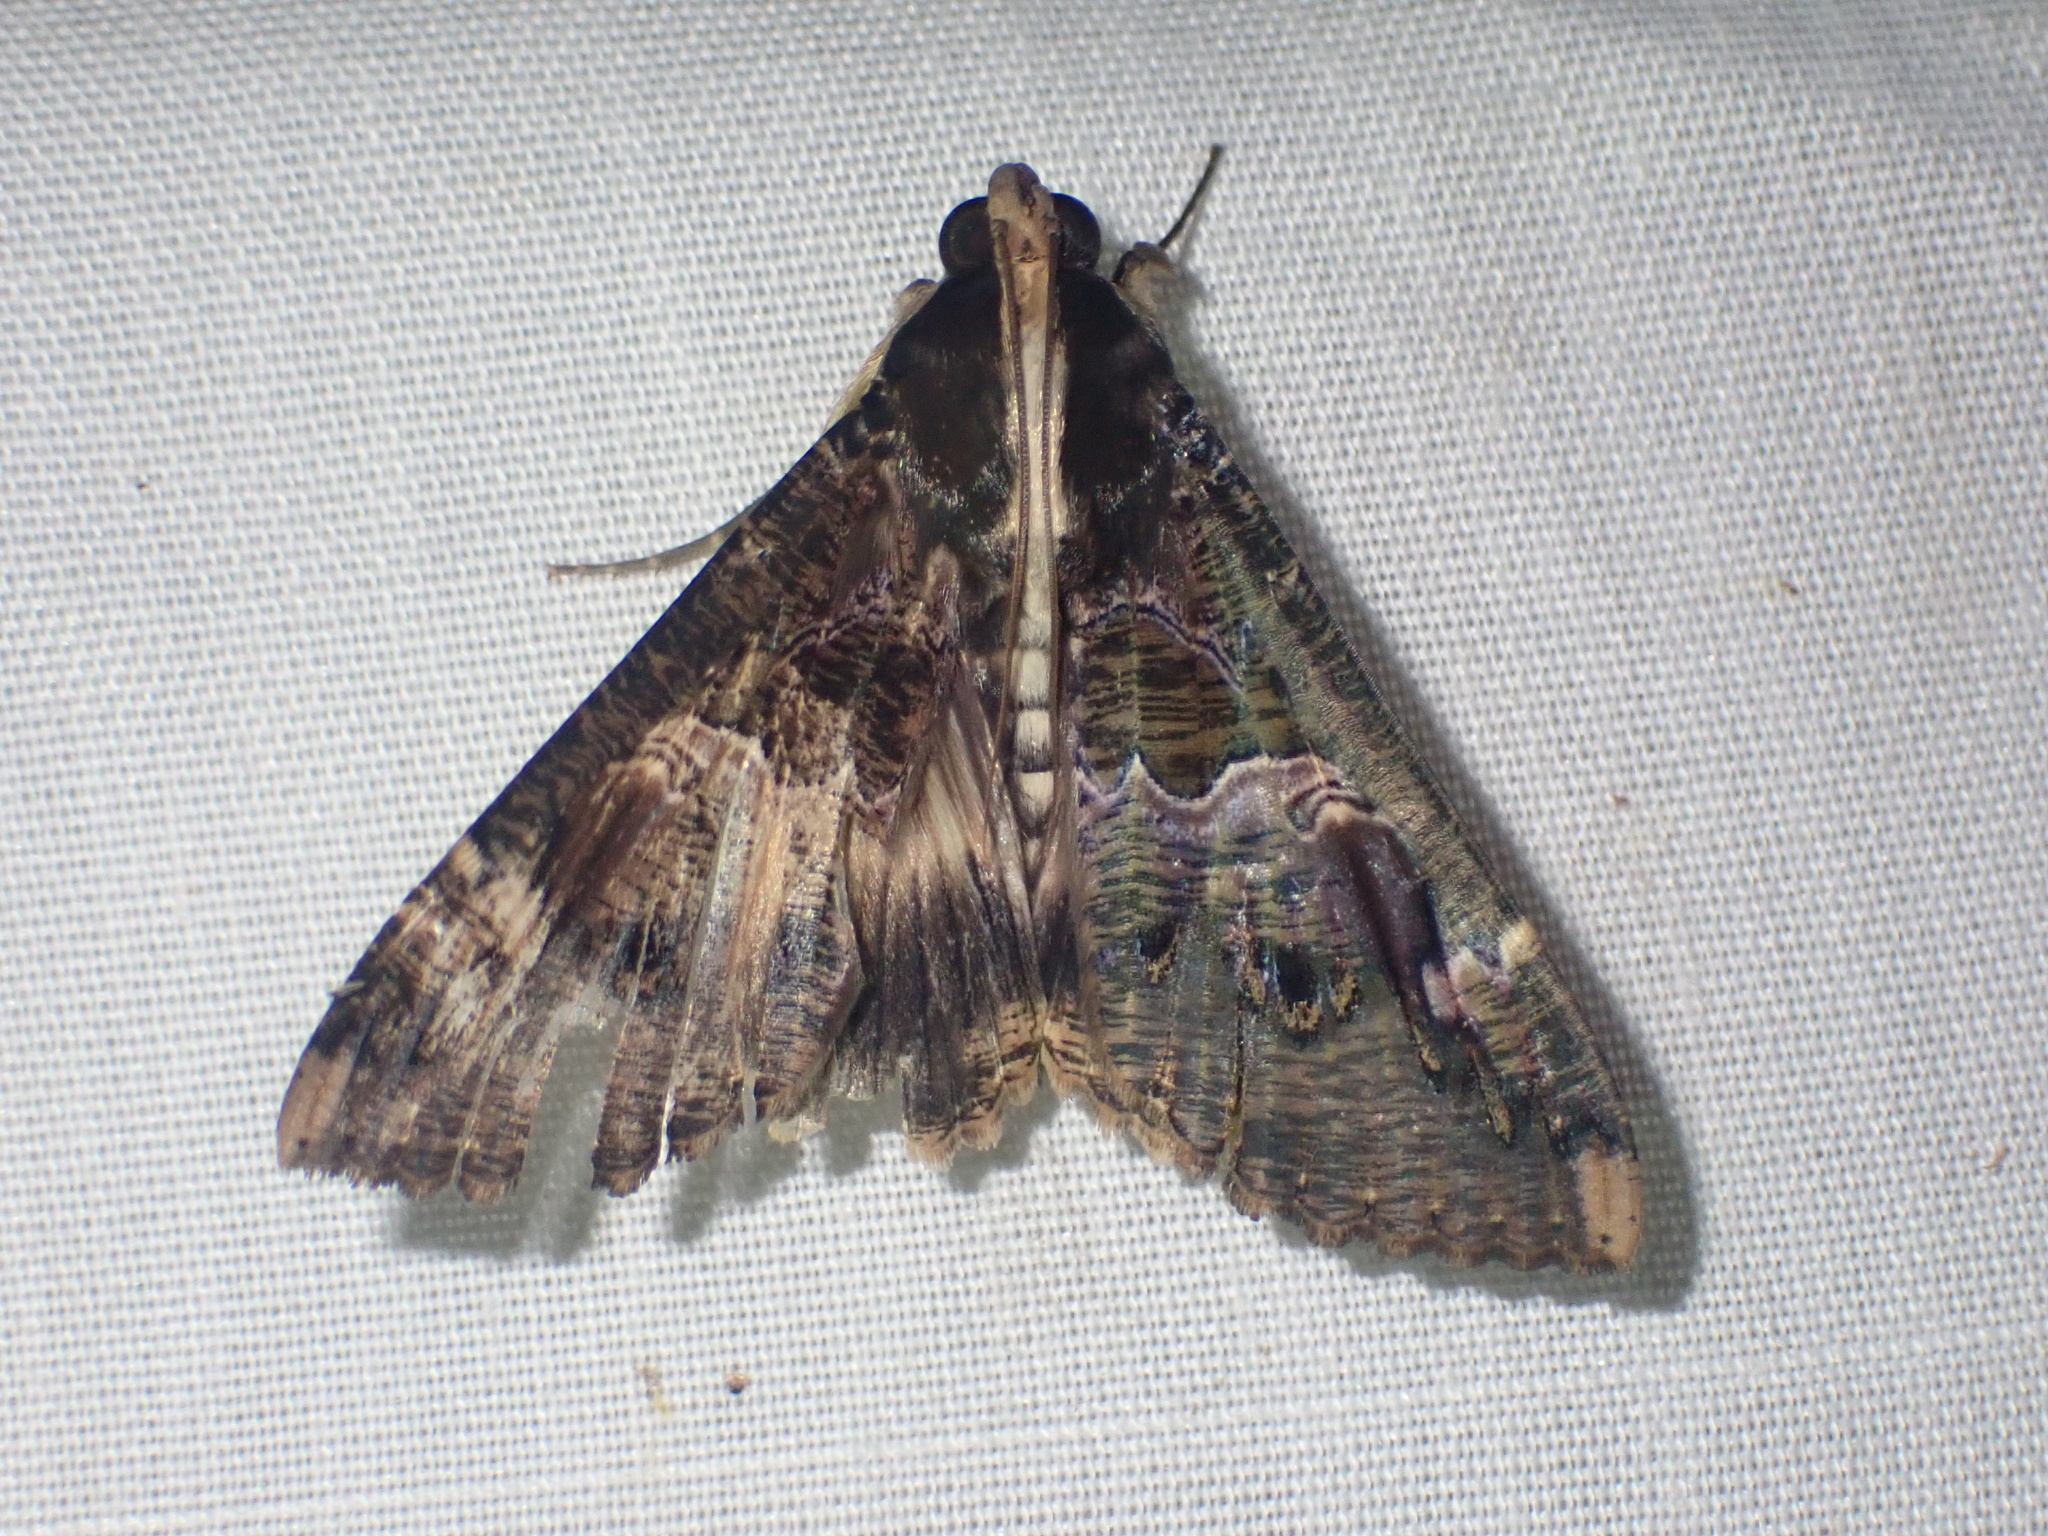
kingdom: Animalia
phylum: Arthropoda
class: Insecta
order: Lepidoptera
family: Erebidae
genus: Sphingomorpha
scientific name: Sphingomorpha chlorea
